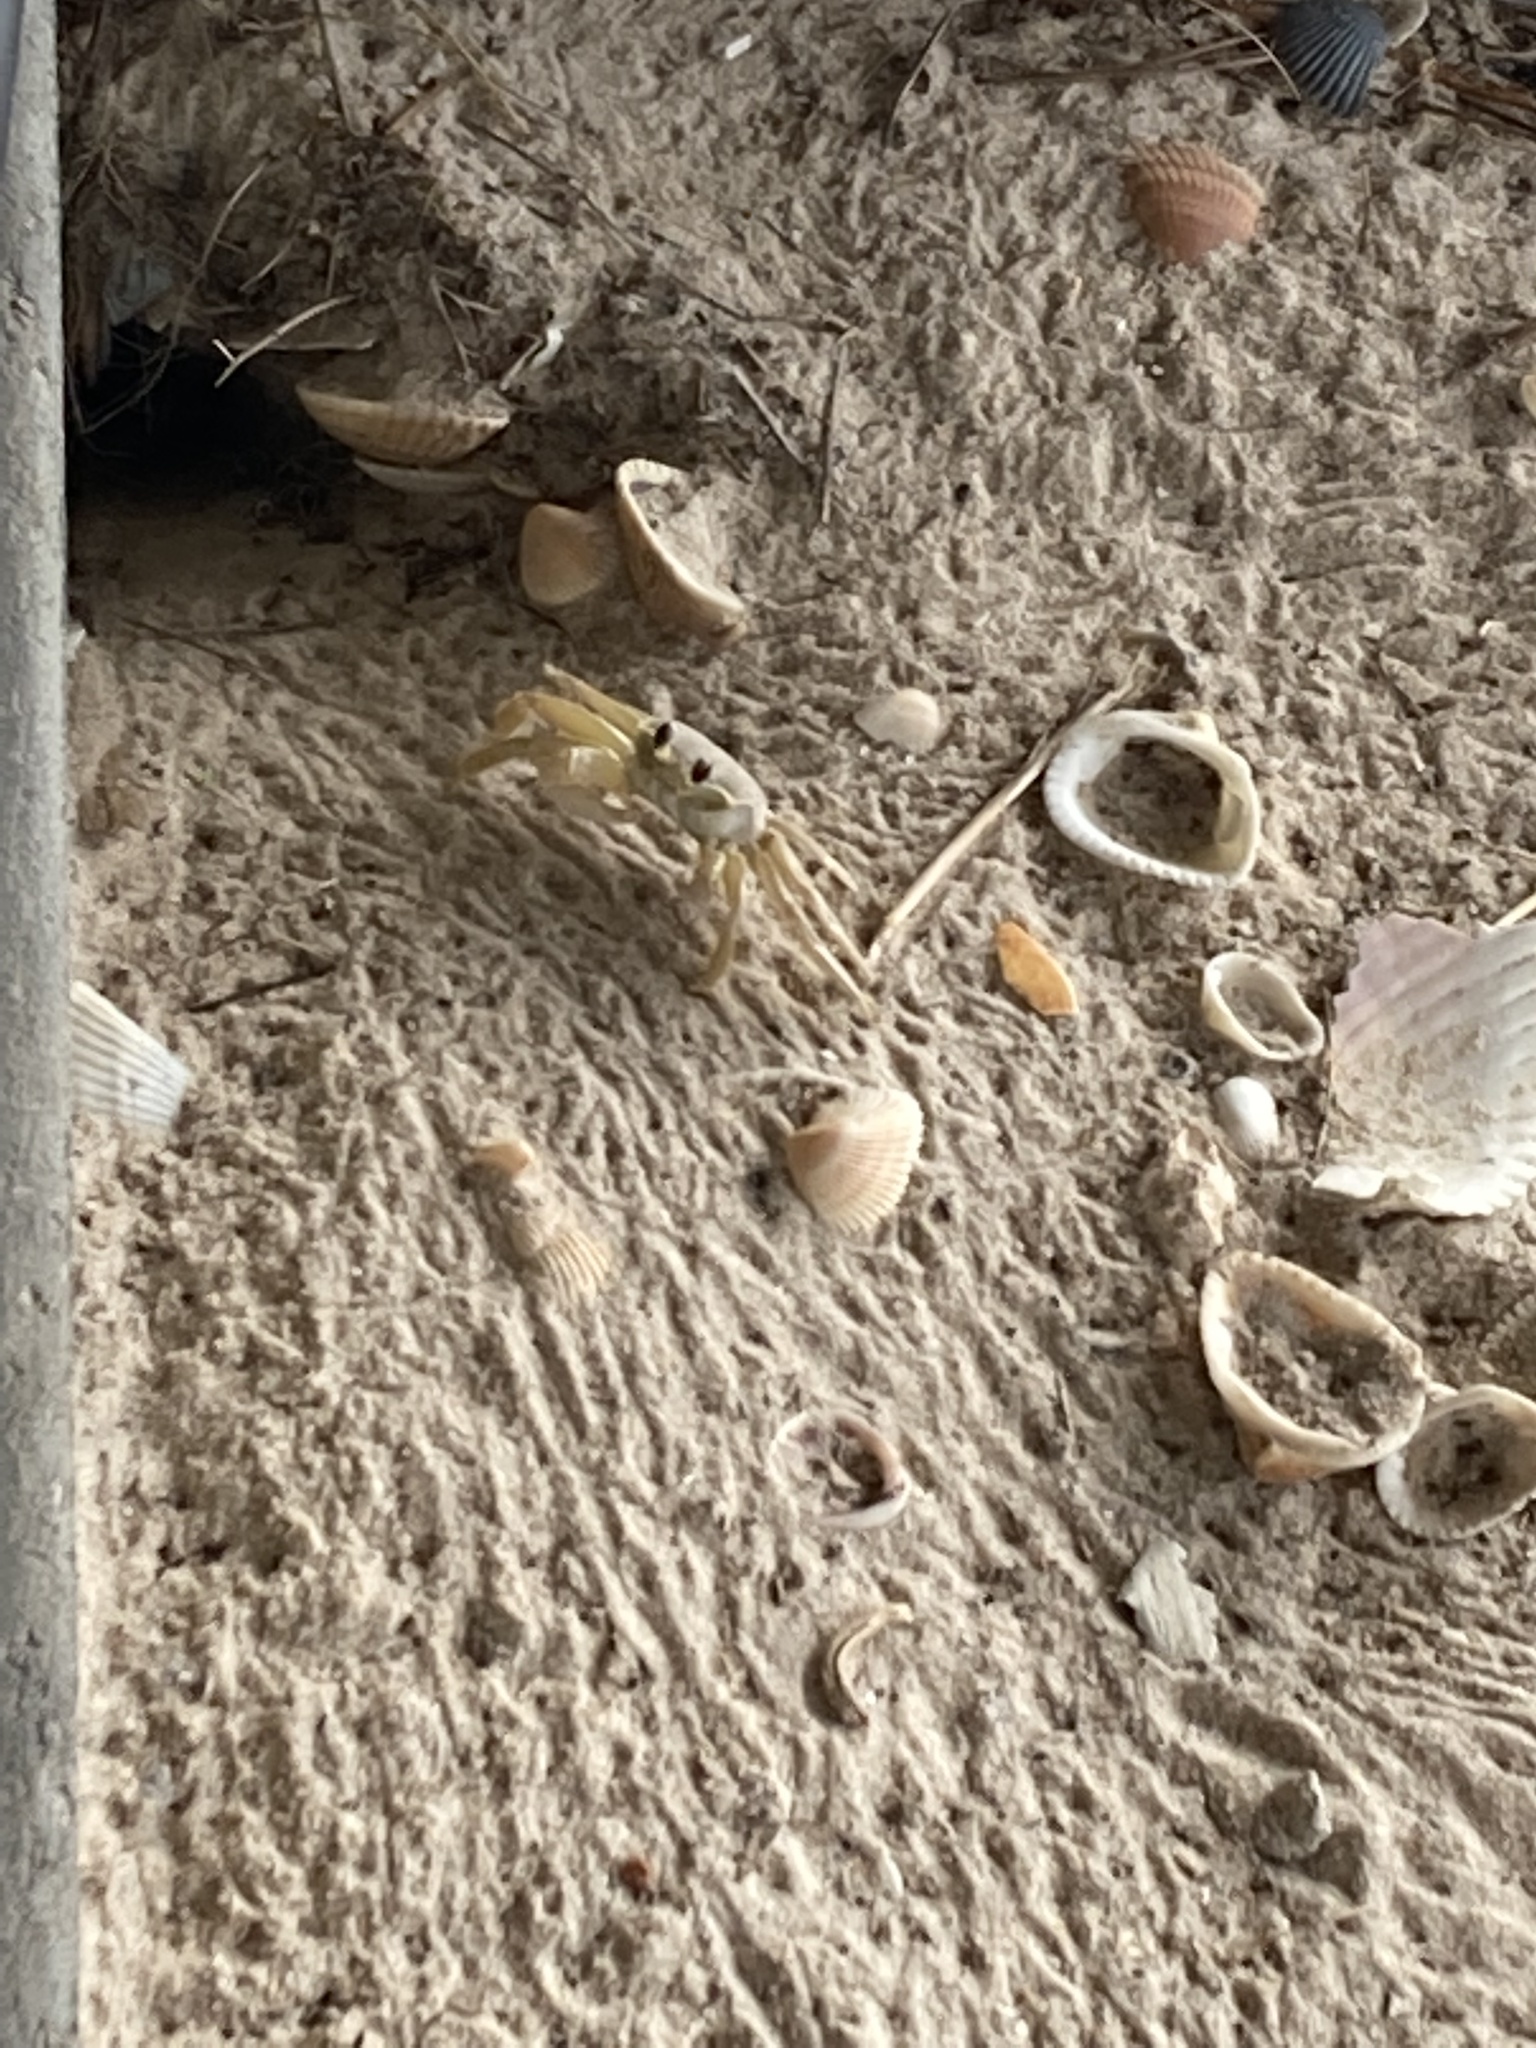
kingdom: Animalia
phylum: Arthropoda
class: Malacostraca
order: Decapoda
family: Ocypodidae
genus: Ocypode
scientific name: Ocypode quadrata
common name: Ghost crab
